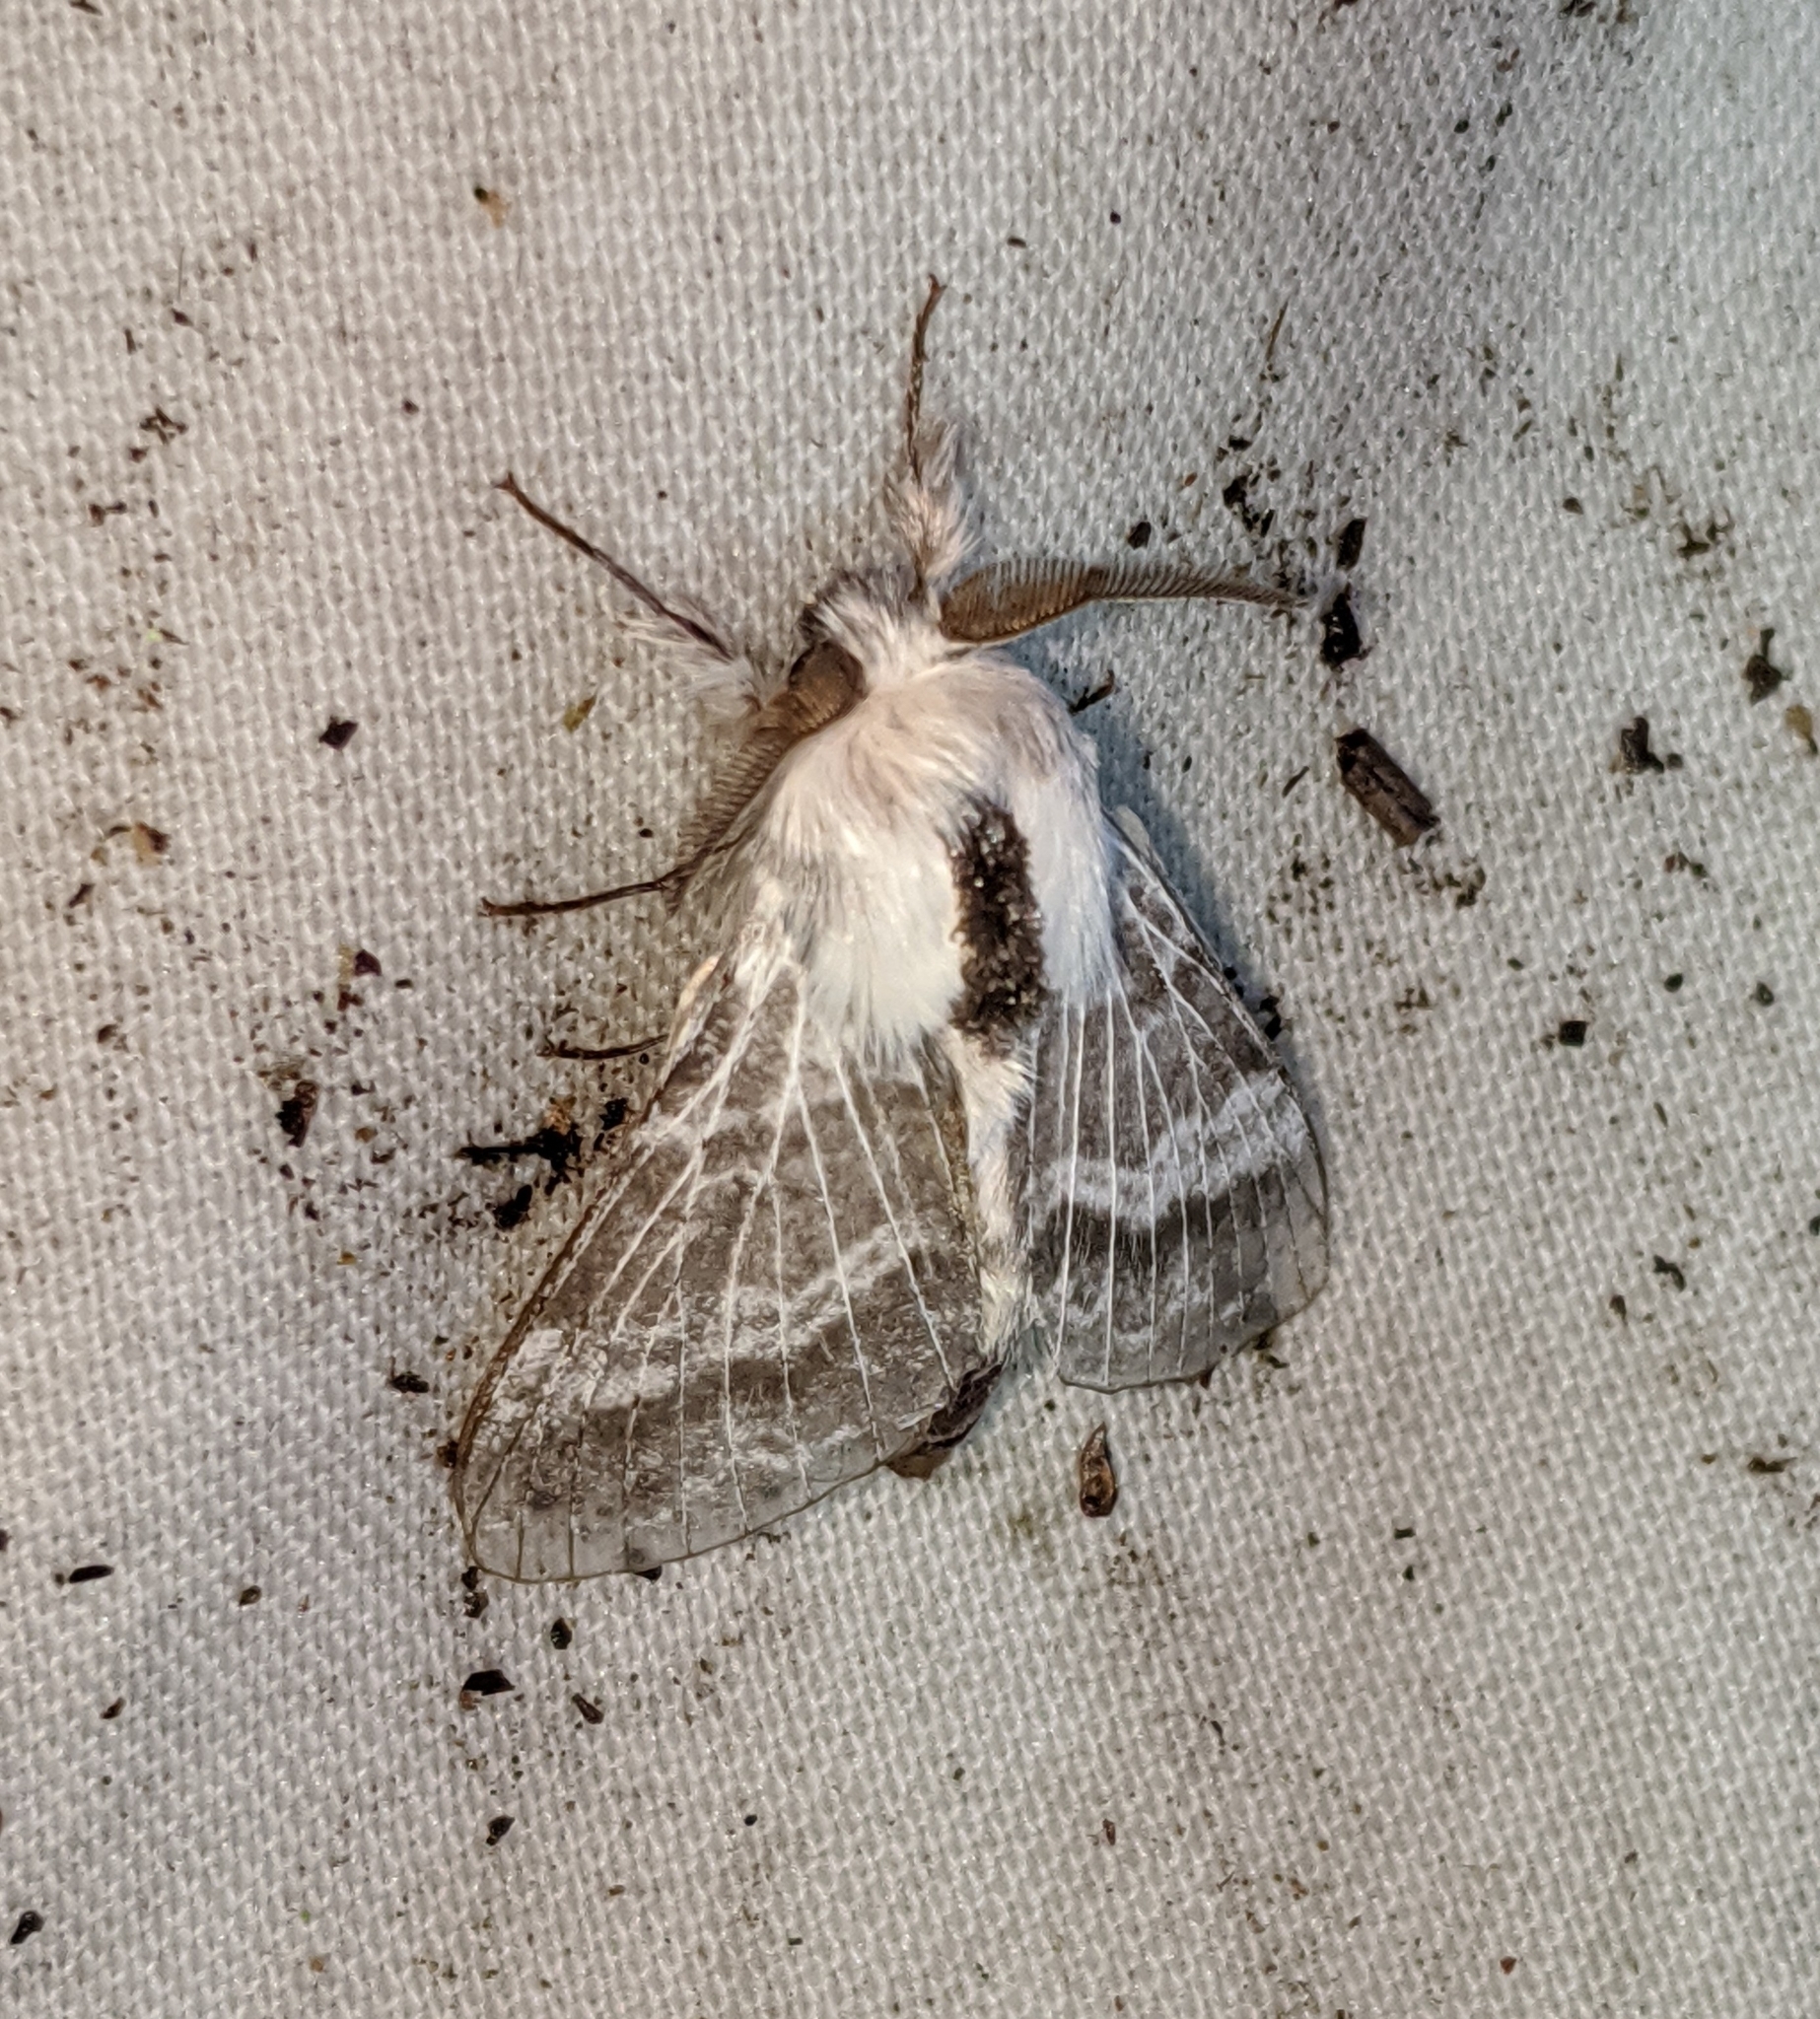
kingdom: Animalia
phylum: Arthropoda
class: Insecta
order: Lepidoptera
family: Lasiocampidae
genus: Tolype
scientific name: Tolype dayi
